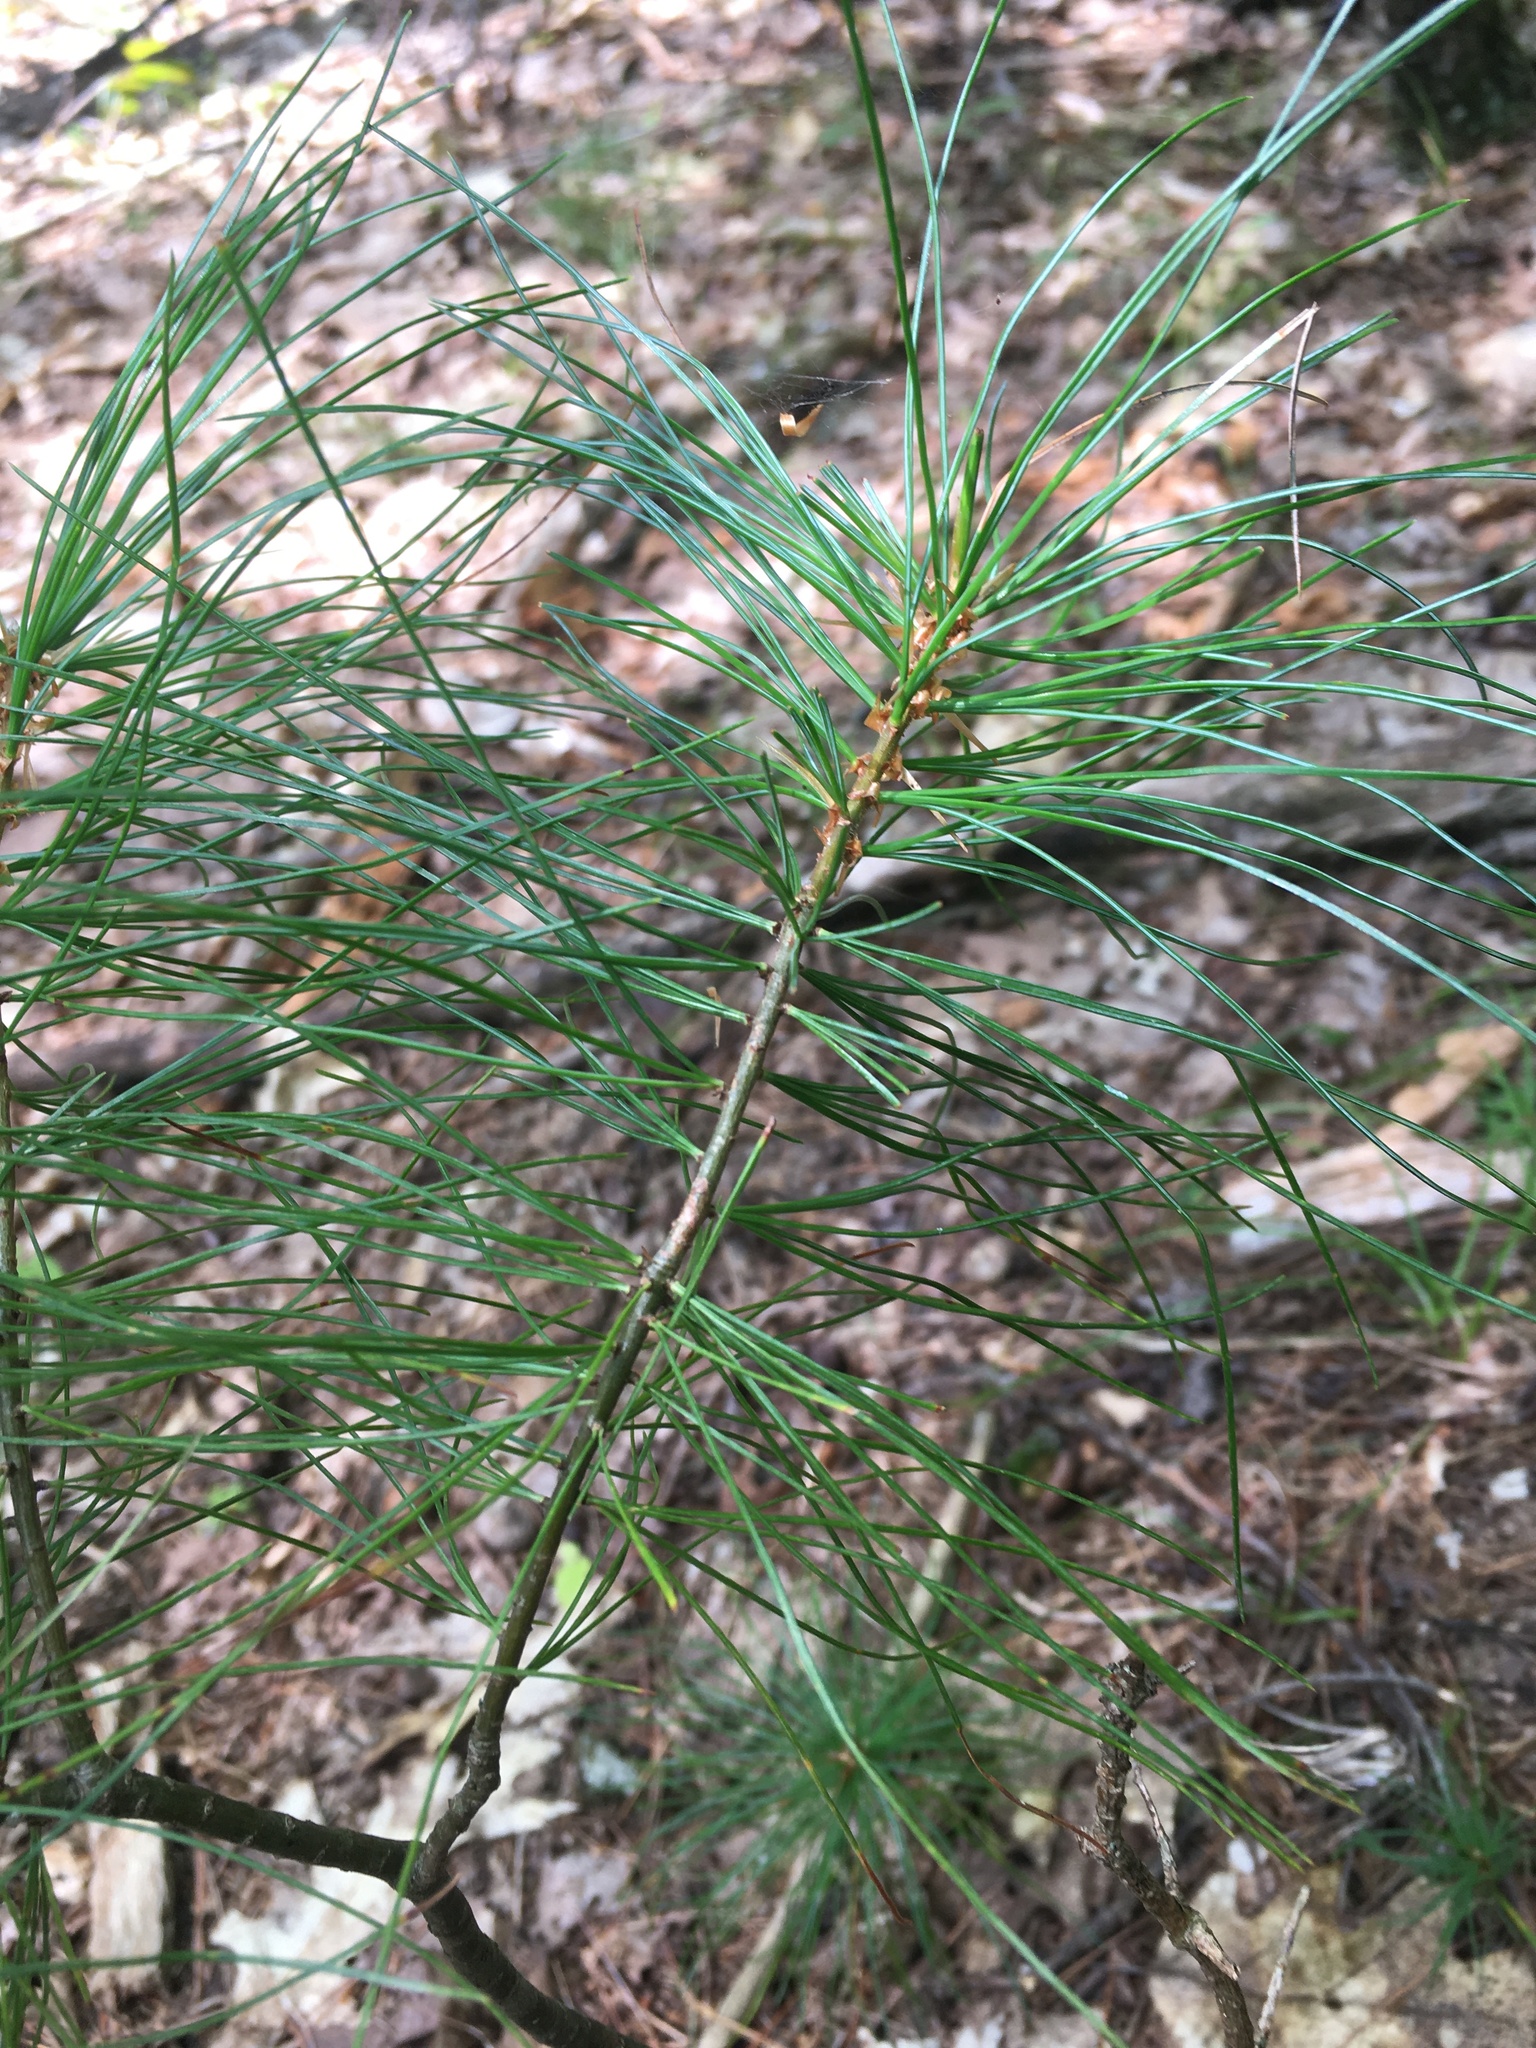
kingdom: Plantae
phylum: Tracheophyta
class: Pinopsida
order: Pinales
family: Pinaceae
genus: Pinus
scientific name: Pinus strobus
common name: Weymouth pine
